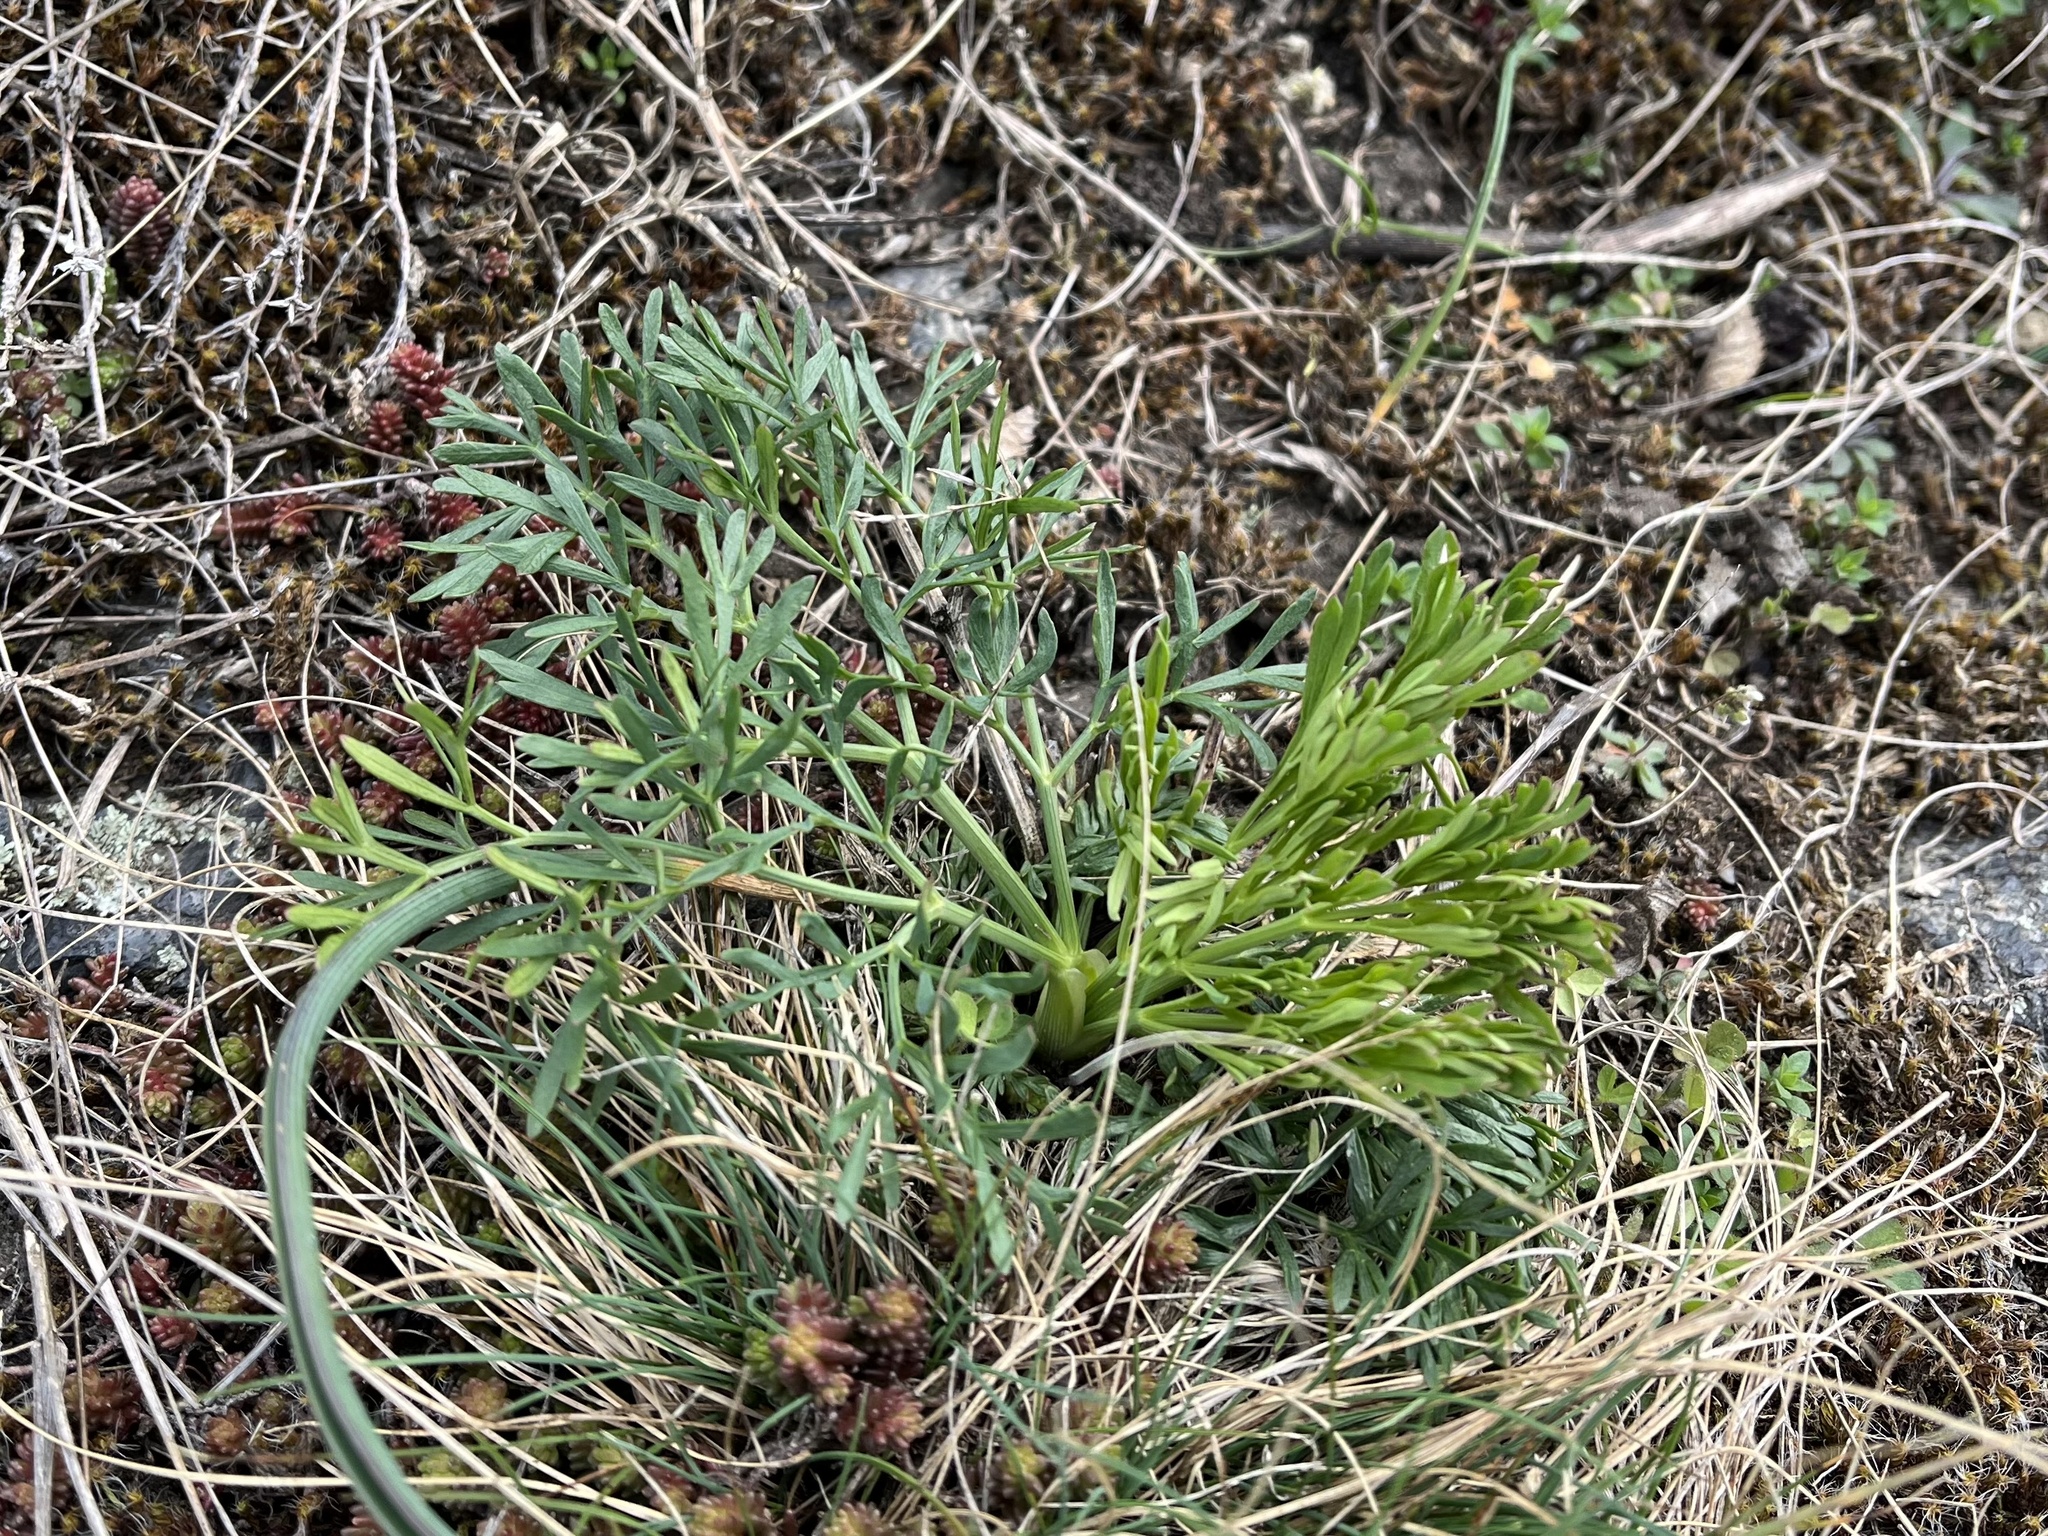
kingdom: Plantae
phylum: Tracheophyta
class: Magnoliopsida
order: Apiales
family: Apiaceae
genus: Seseli
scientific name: Seseli osseum
